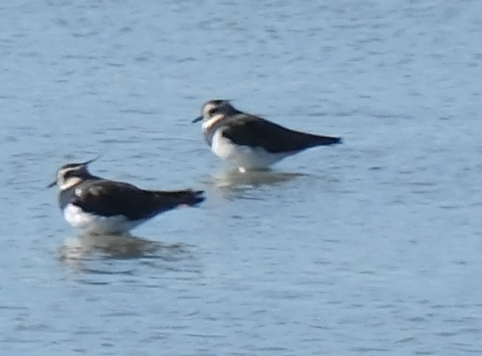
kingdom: Animalia
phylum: Chordata
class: Aves
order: Charadriiformes
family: Charadriidae
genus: Vanellus
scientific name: Vanellus vanellus
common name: Northern lapwing
